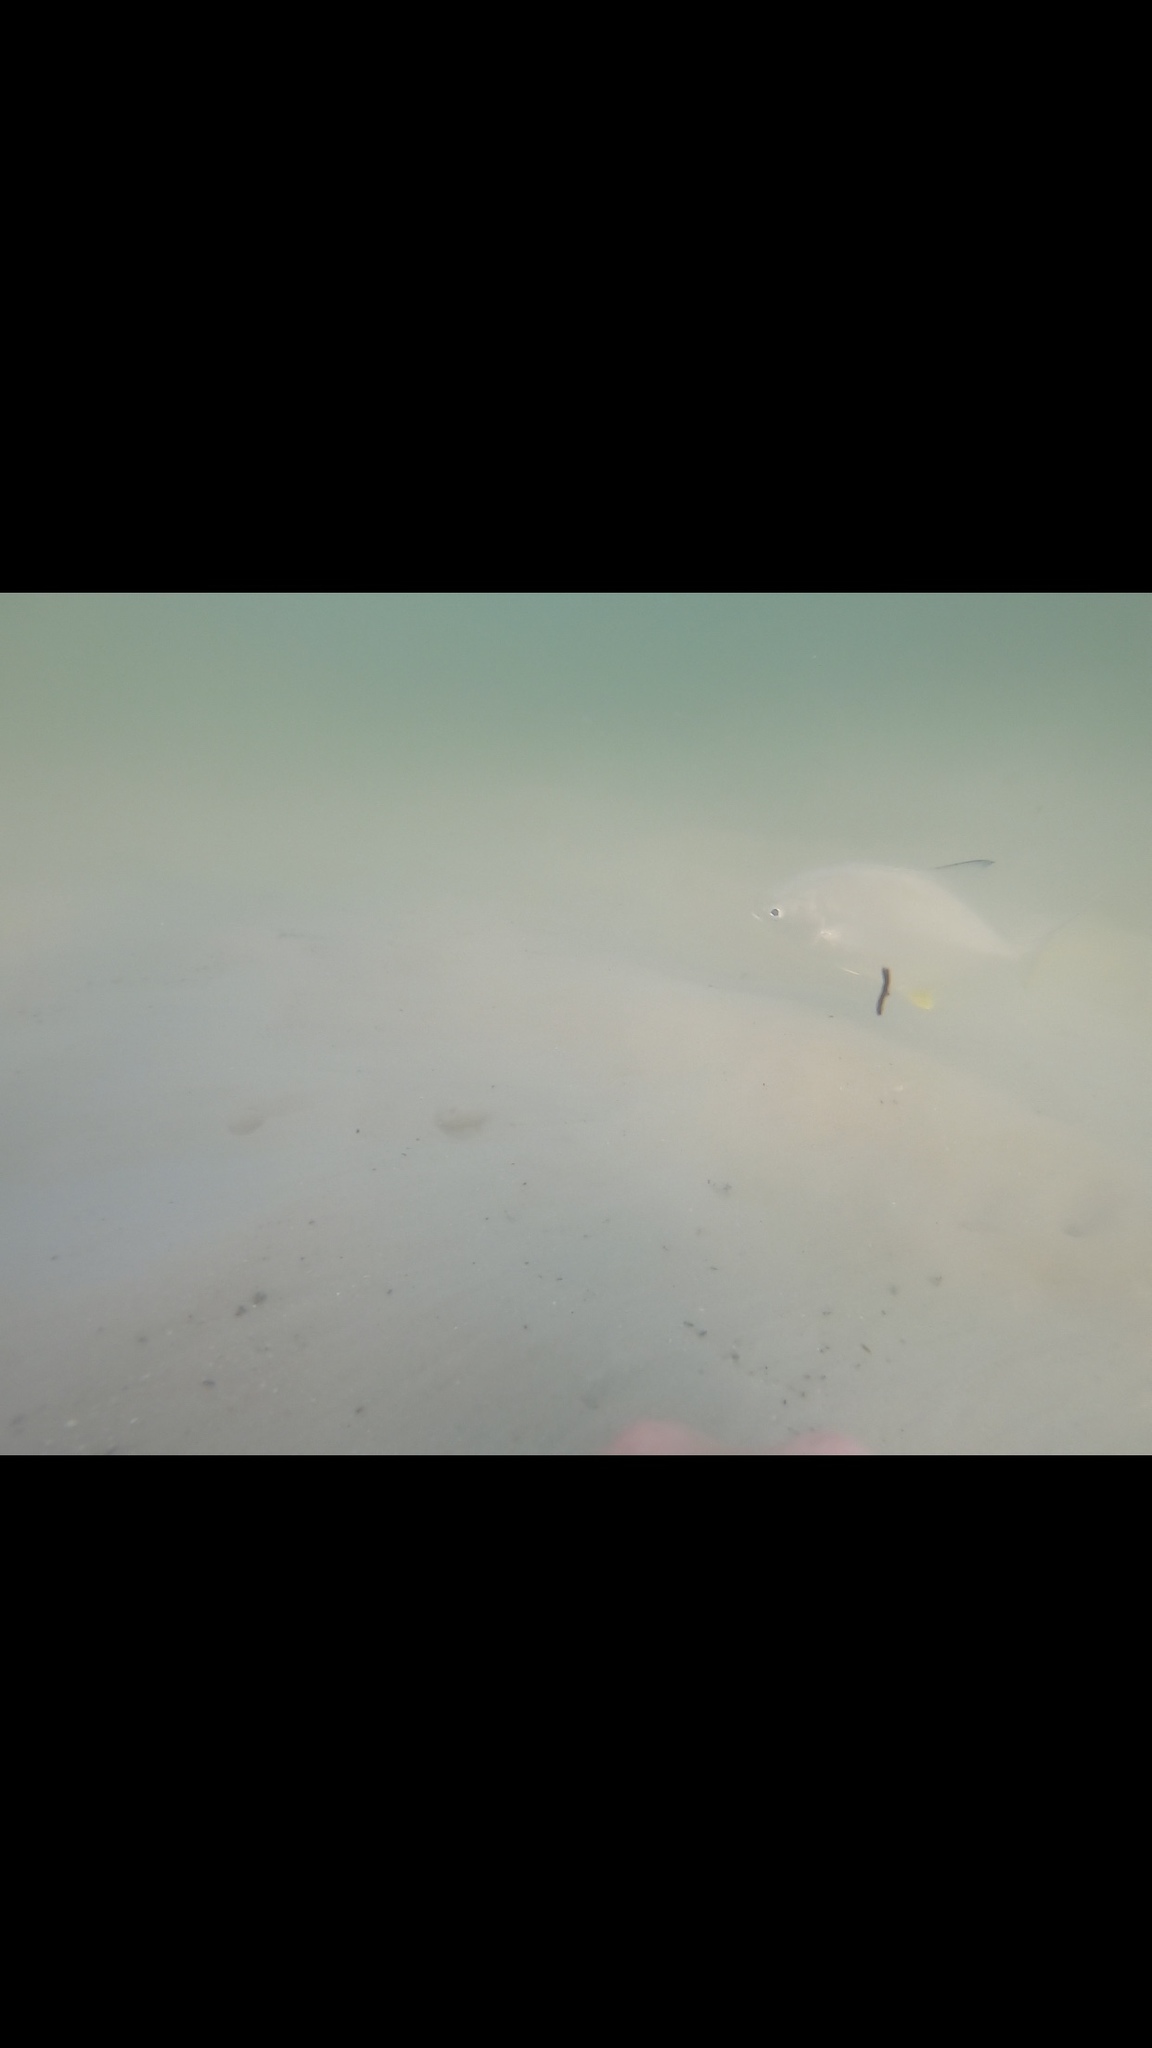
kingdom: Animalia
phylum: Chordata
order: Perciformes
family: Carangidae
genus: Trachinotus
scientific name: Trachinotus carolinus
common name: Florida pompano
